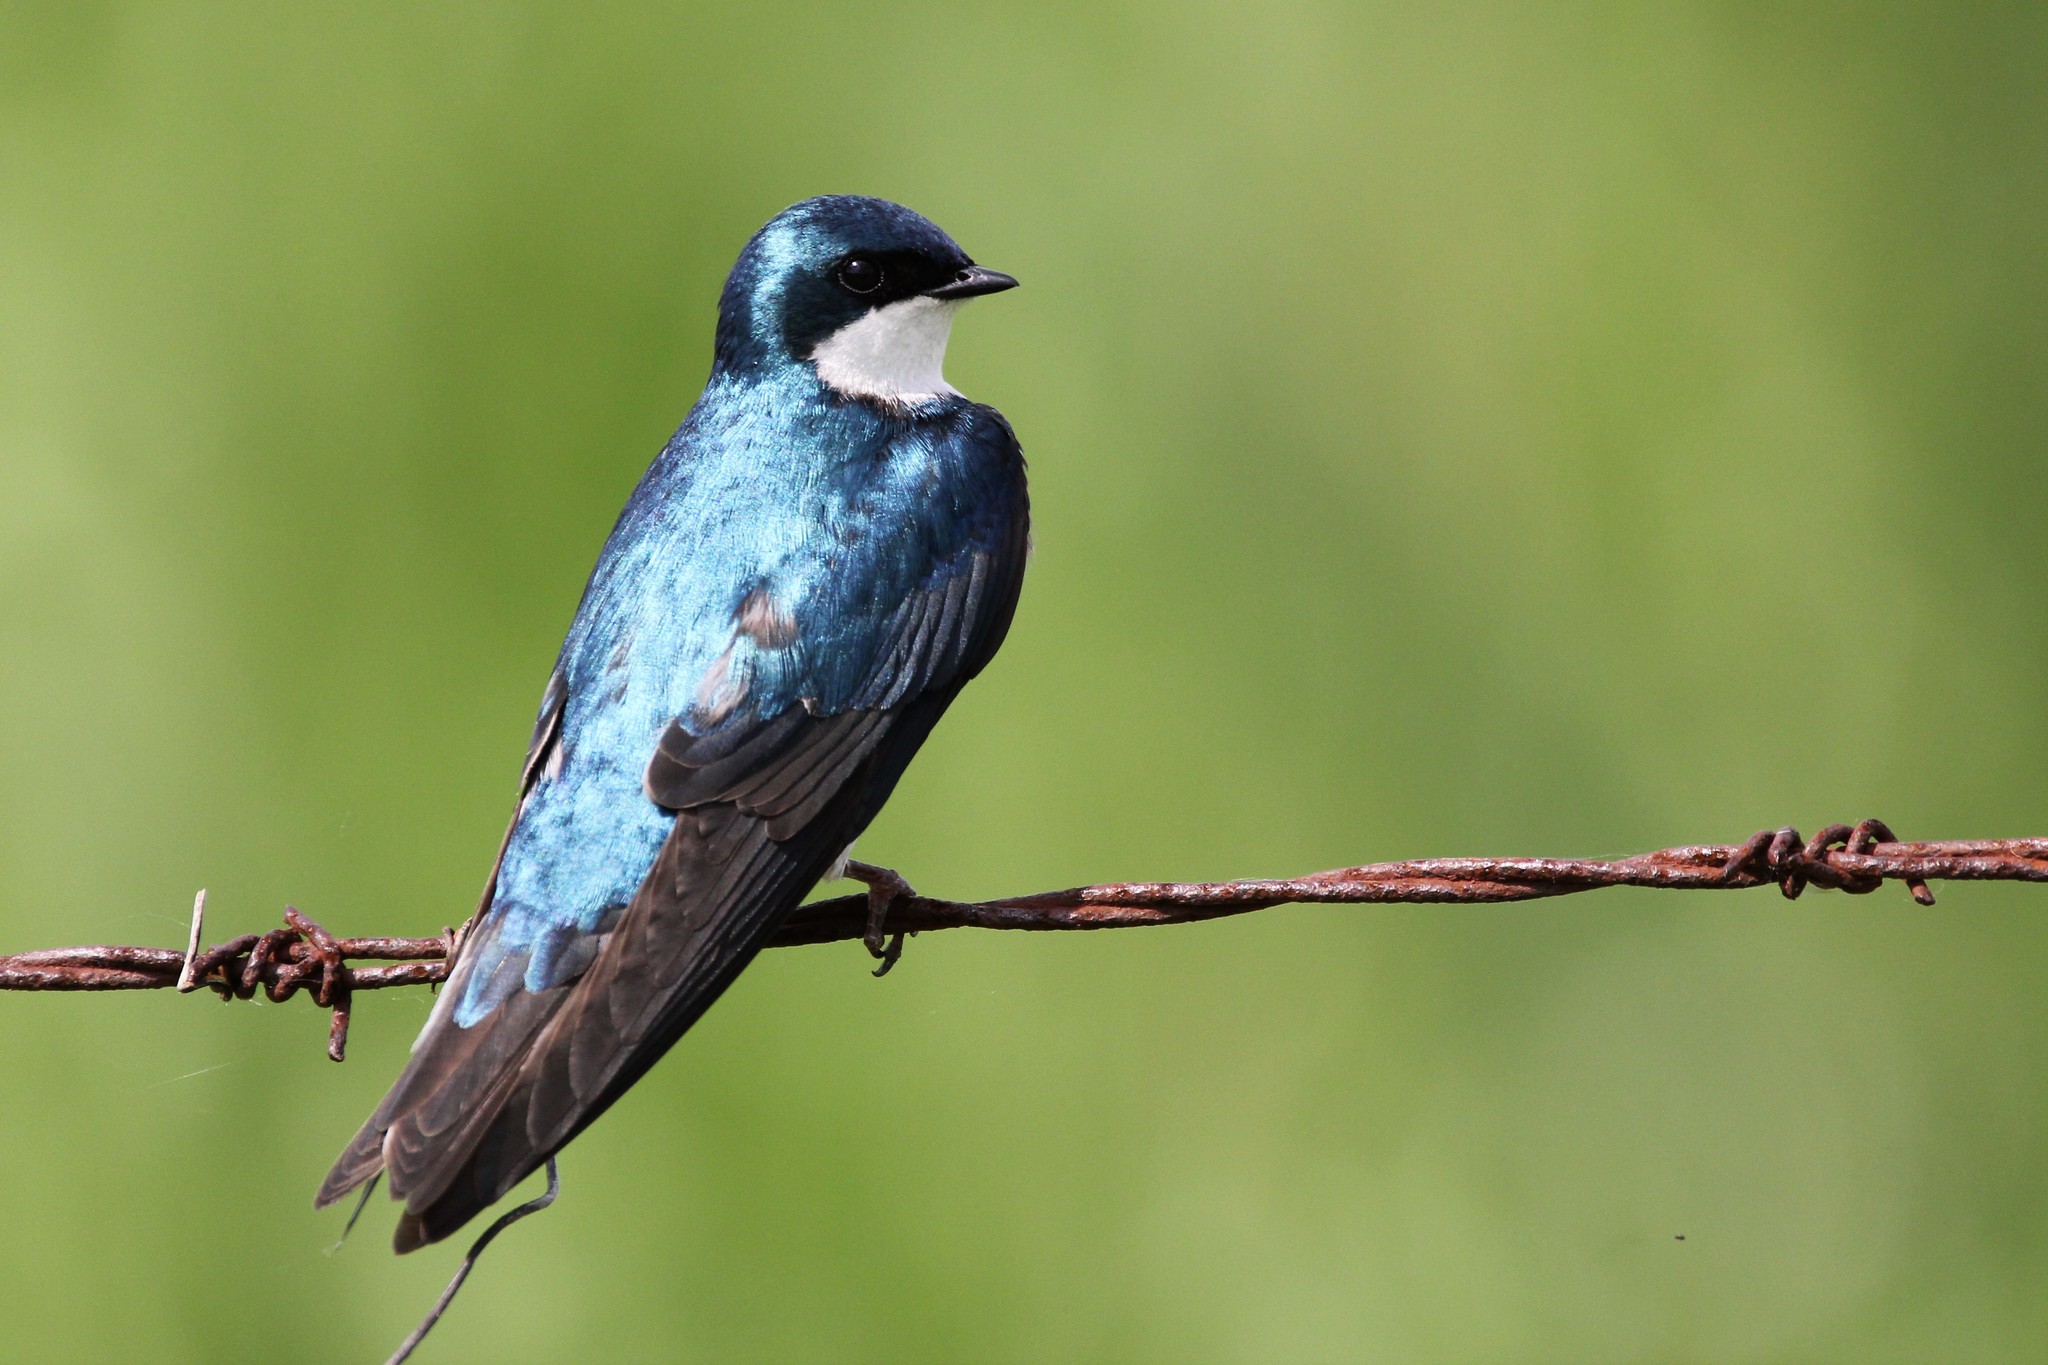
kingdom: Animalia
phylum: Chordata
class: Aves
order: Passeriformes
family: Hirundinidae
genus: Tachycineta
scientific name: Tachycineta bicolor
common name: Tree swallow
